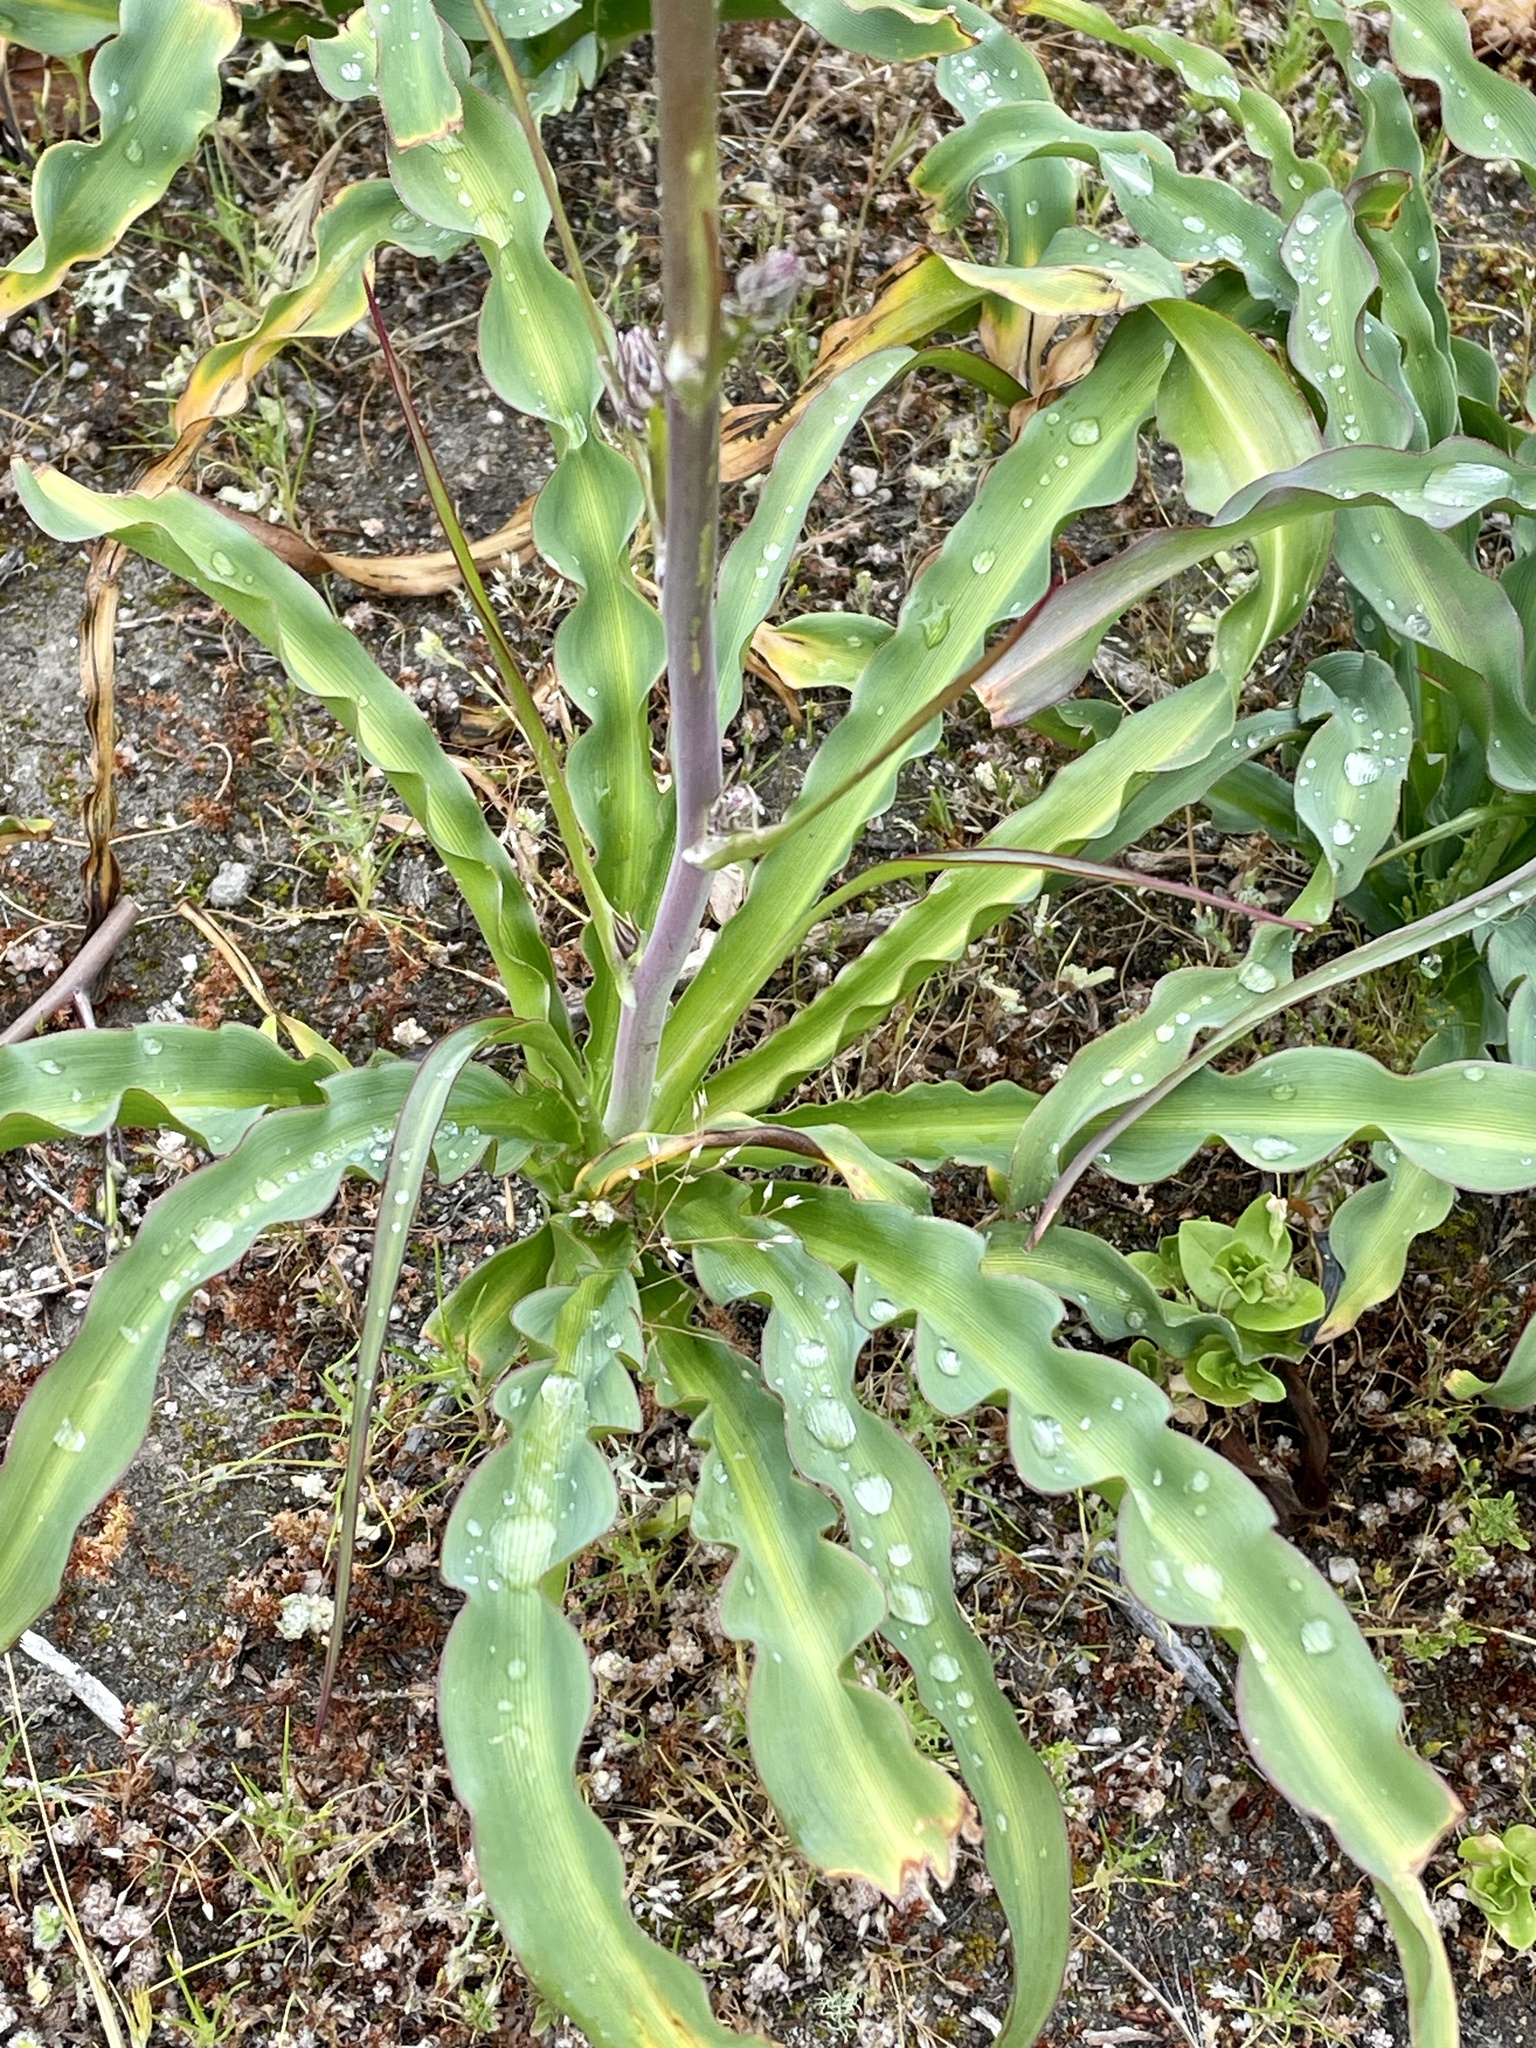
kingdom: Plantae
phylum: Tracheophyta
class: Liliopsida
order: Asparagales
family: Asparagaceae
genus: Chlorogalum
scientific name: Chlorogalum pomeridianum
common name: Amole
